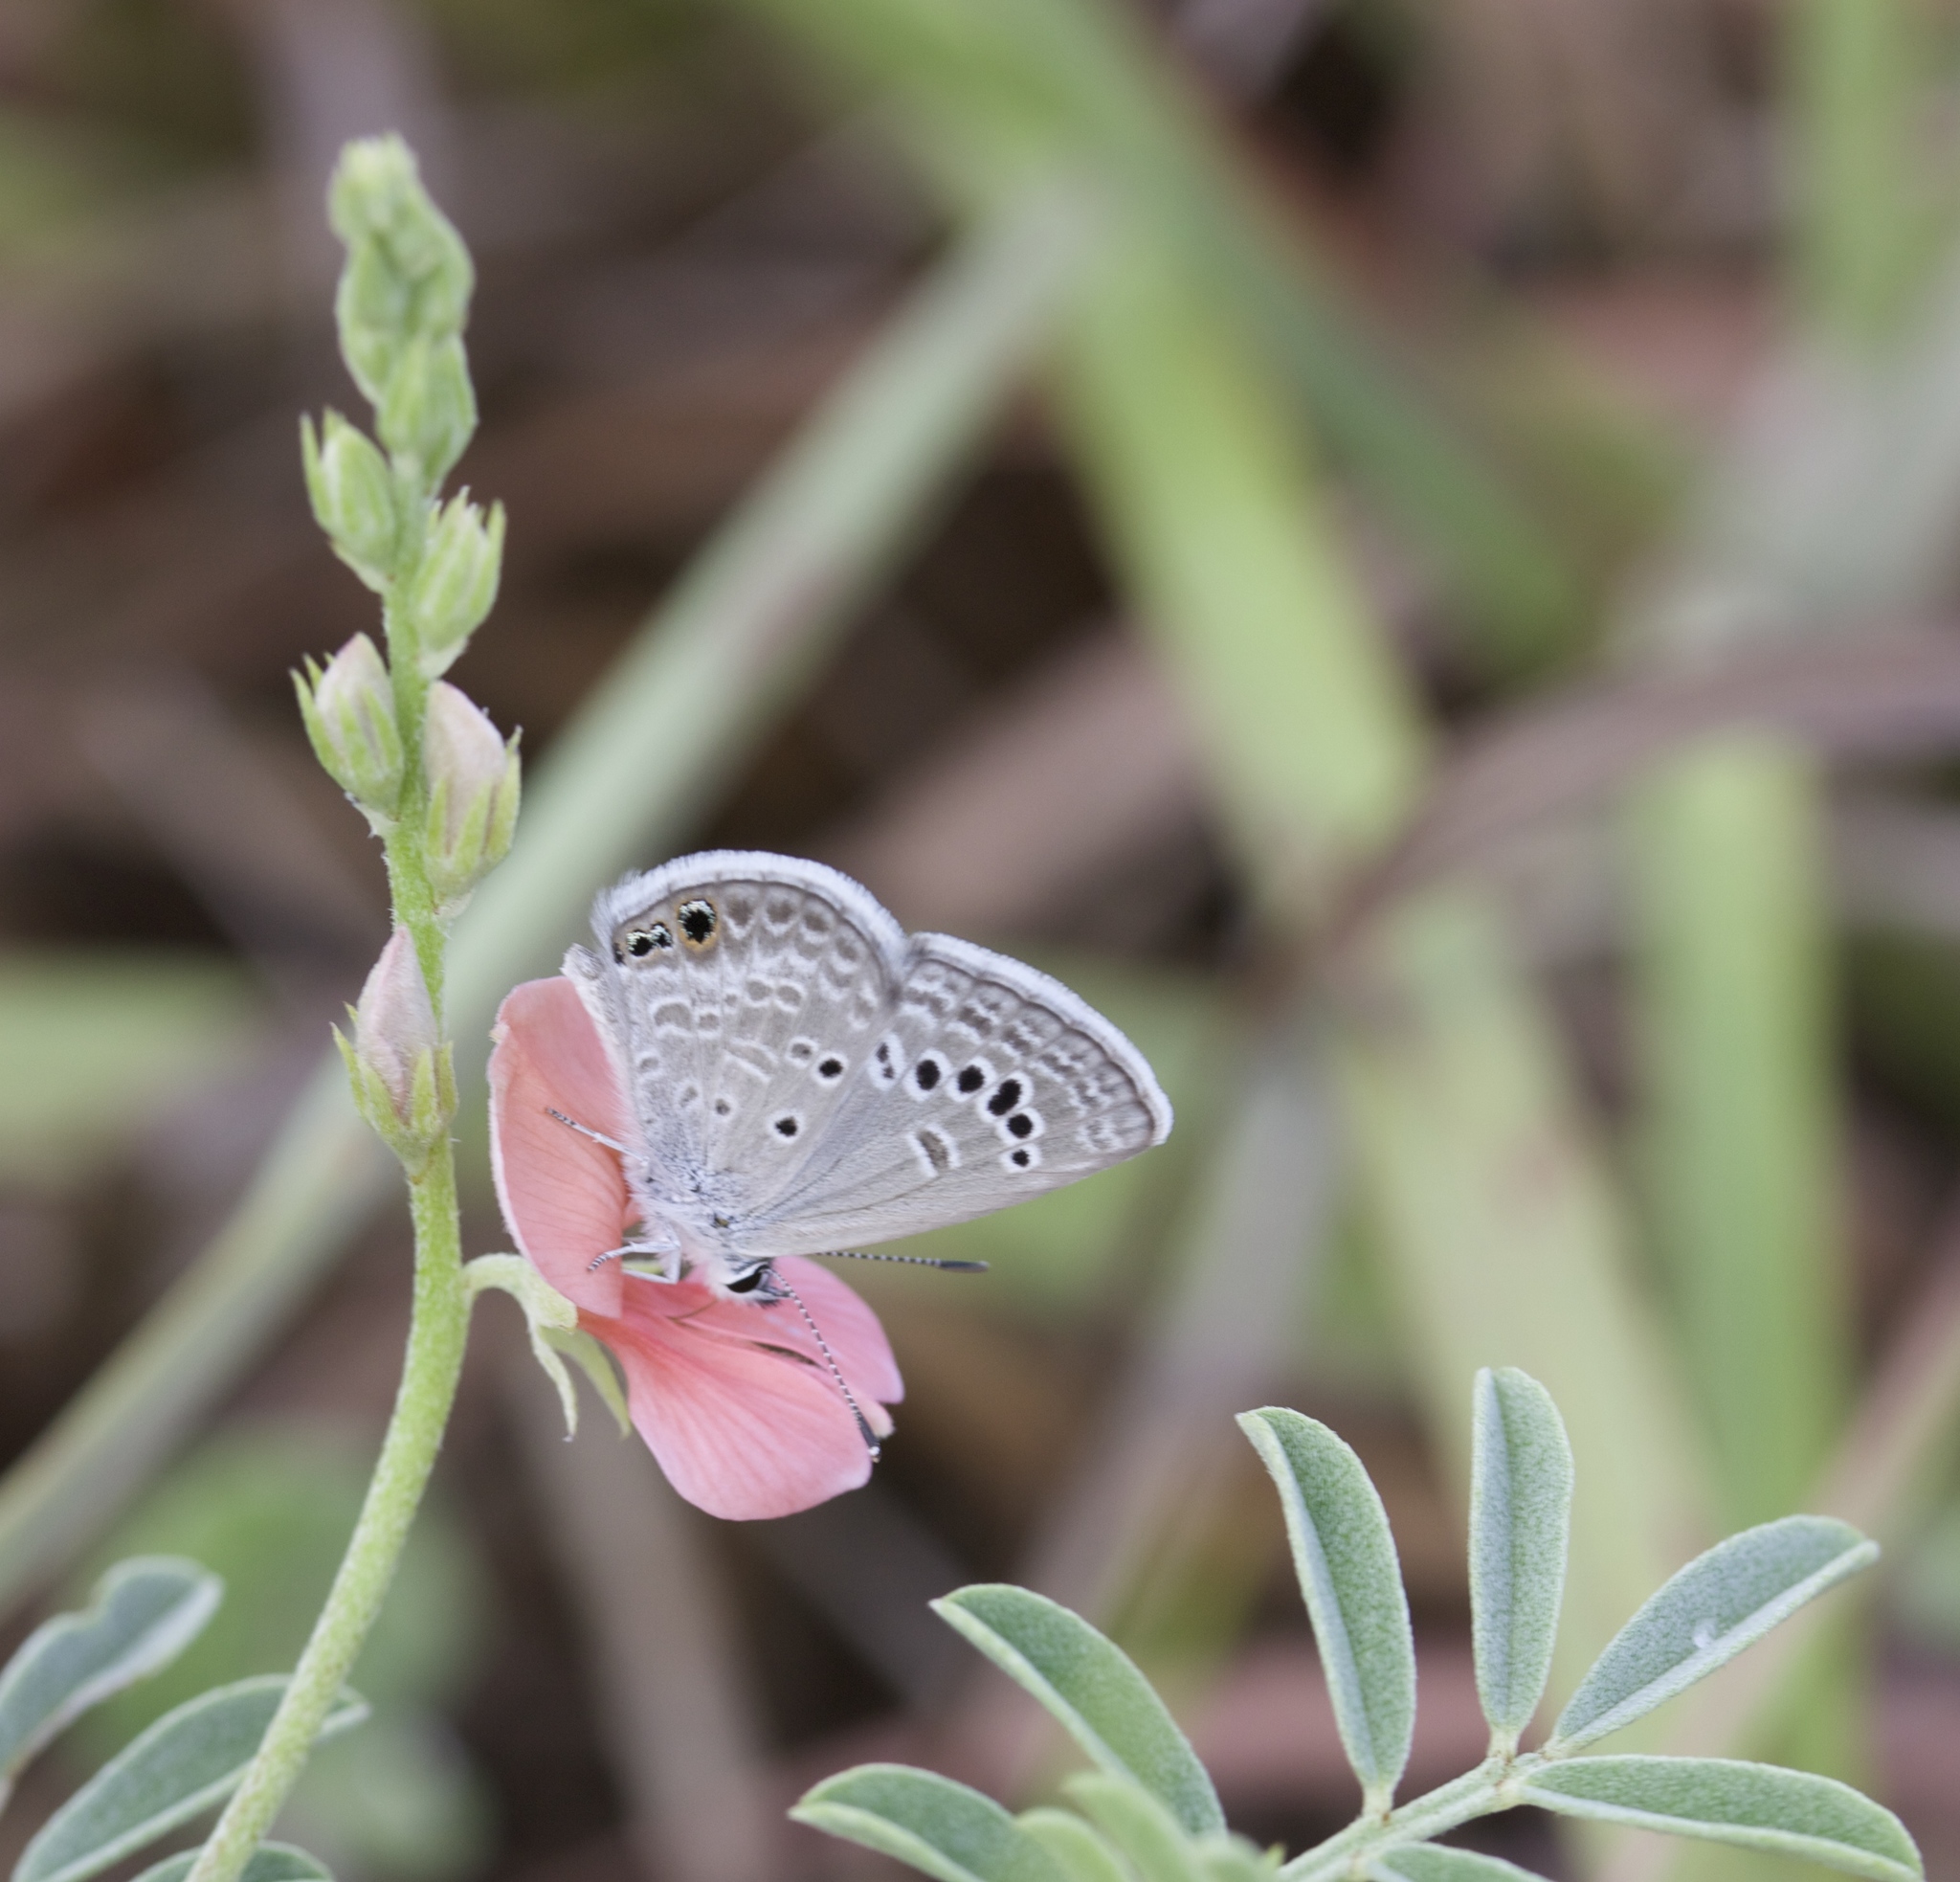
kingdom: Animalia
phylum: Arthropoda
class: Insecta
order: Lepidoptera
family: Lycaenidae
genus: Echinargus
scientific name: Echinargus isola
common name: Reakirt's blue
